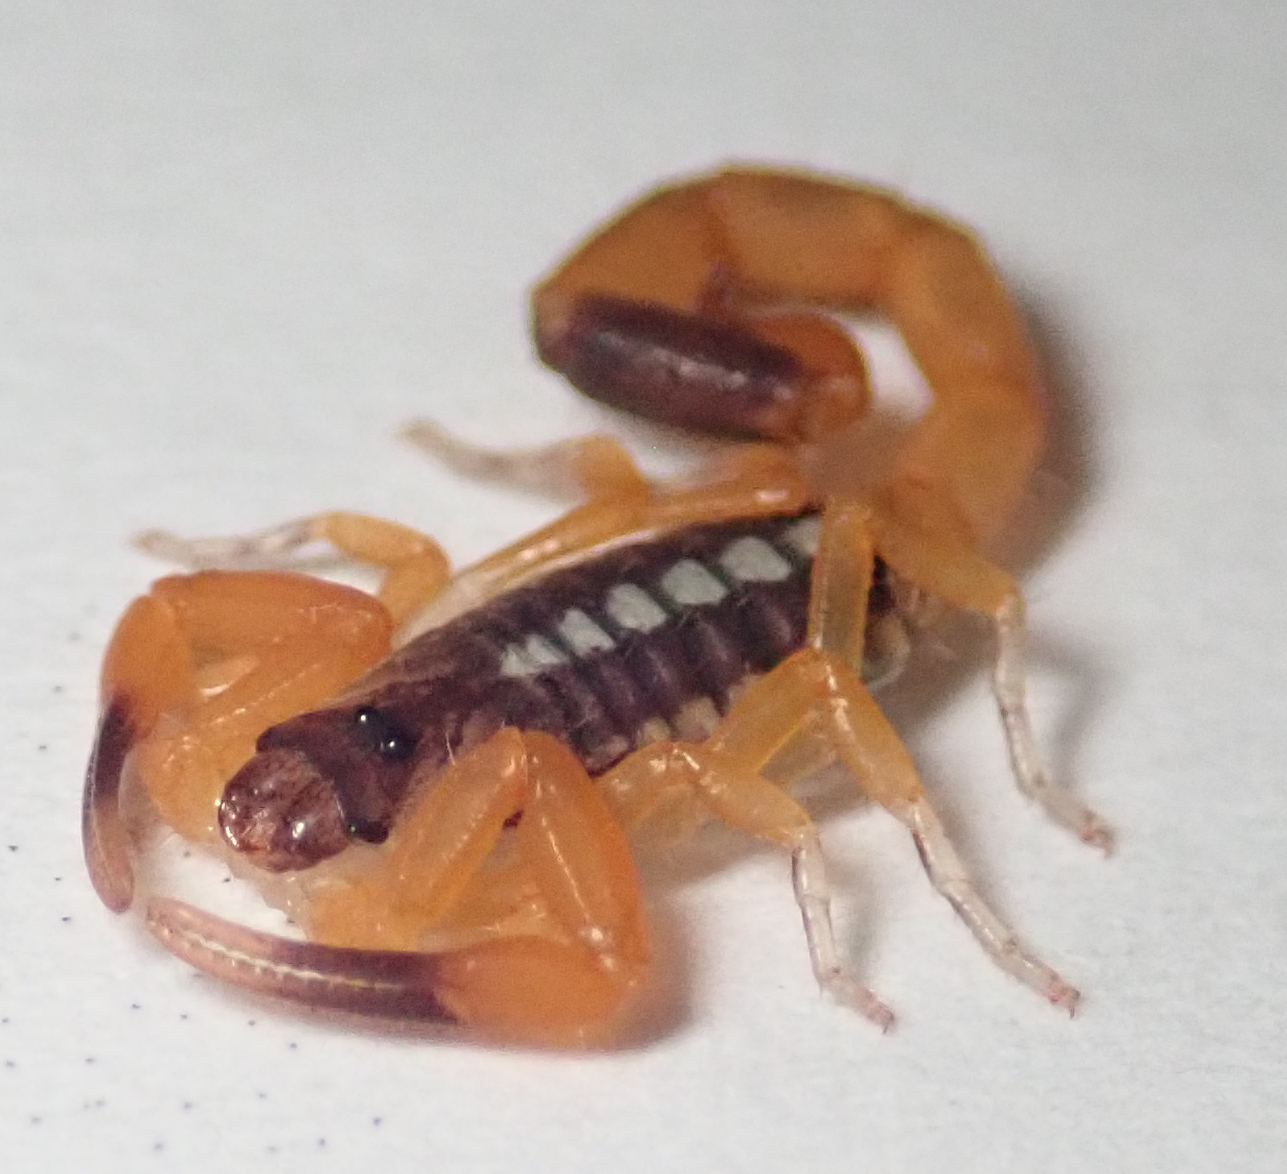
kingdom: Animalia
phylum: Arthropoda
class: Arachnida
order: Scorpiones
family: Buthidae
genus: Uroplectes
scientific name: Uroplectes vittatus
